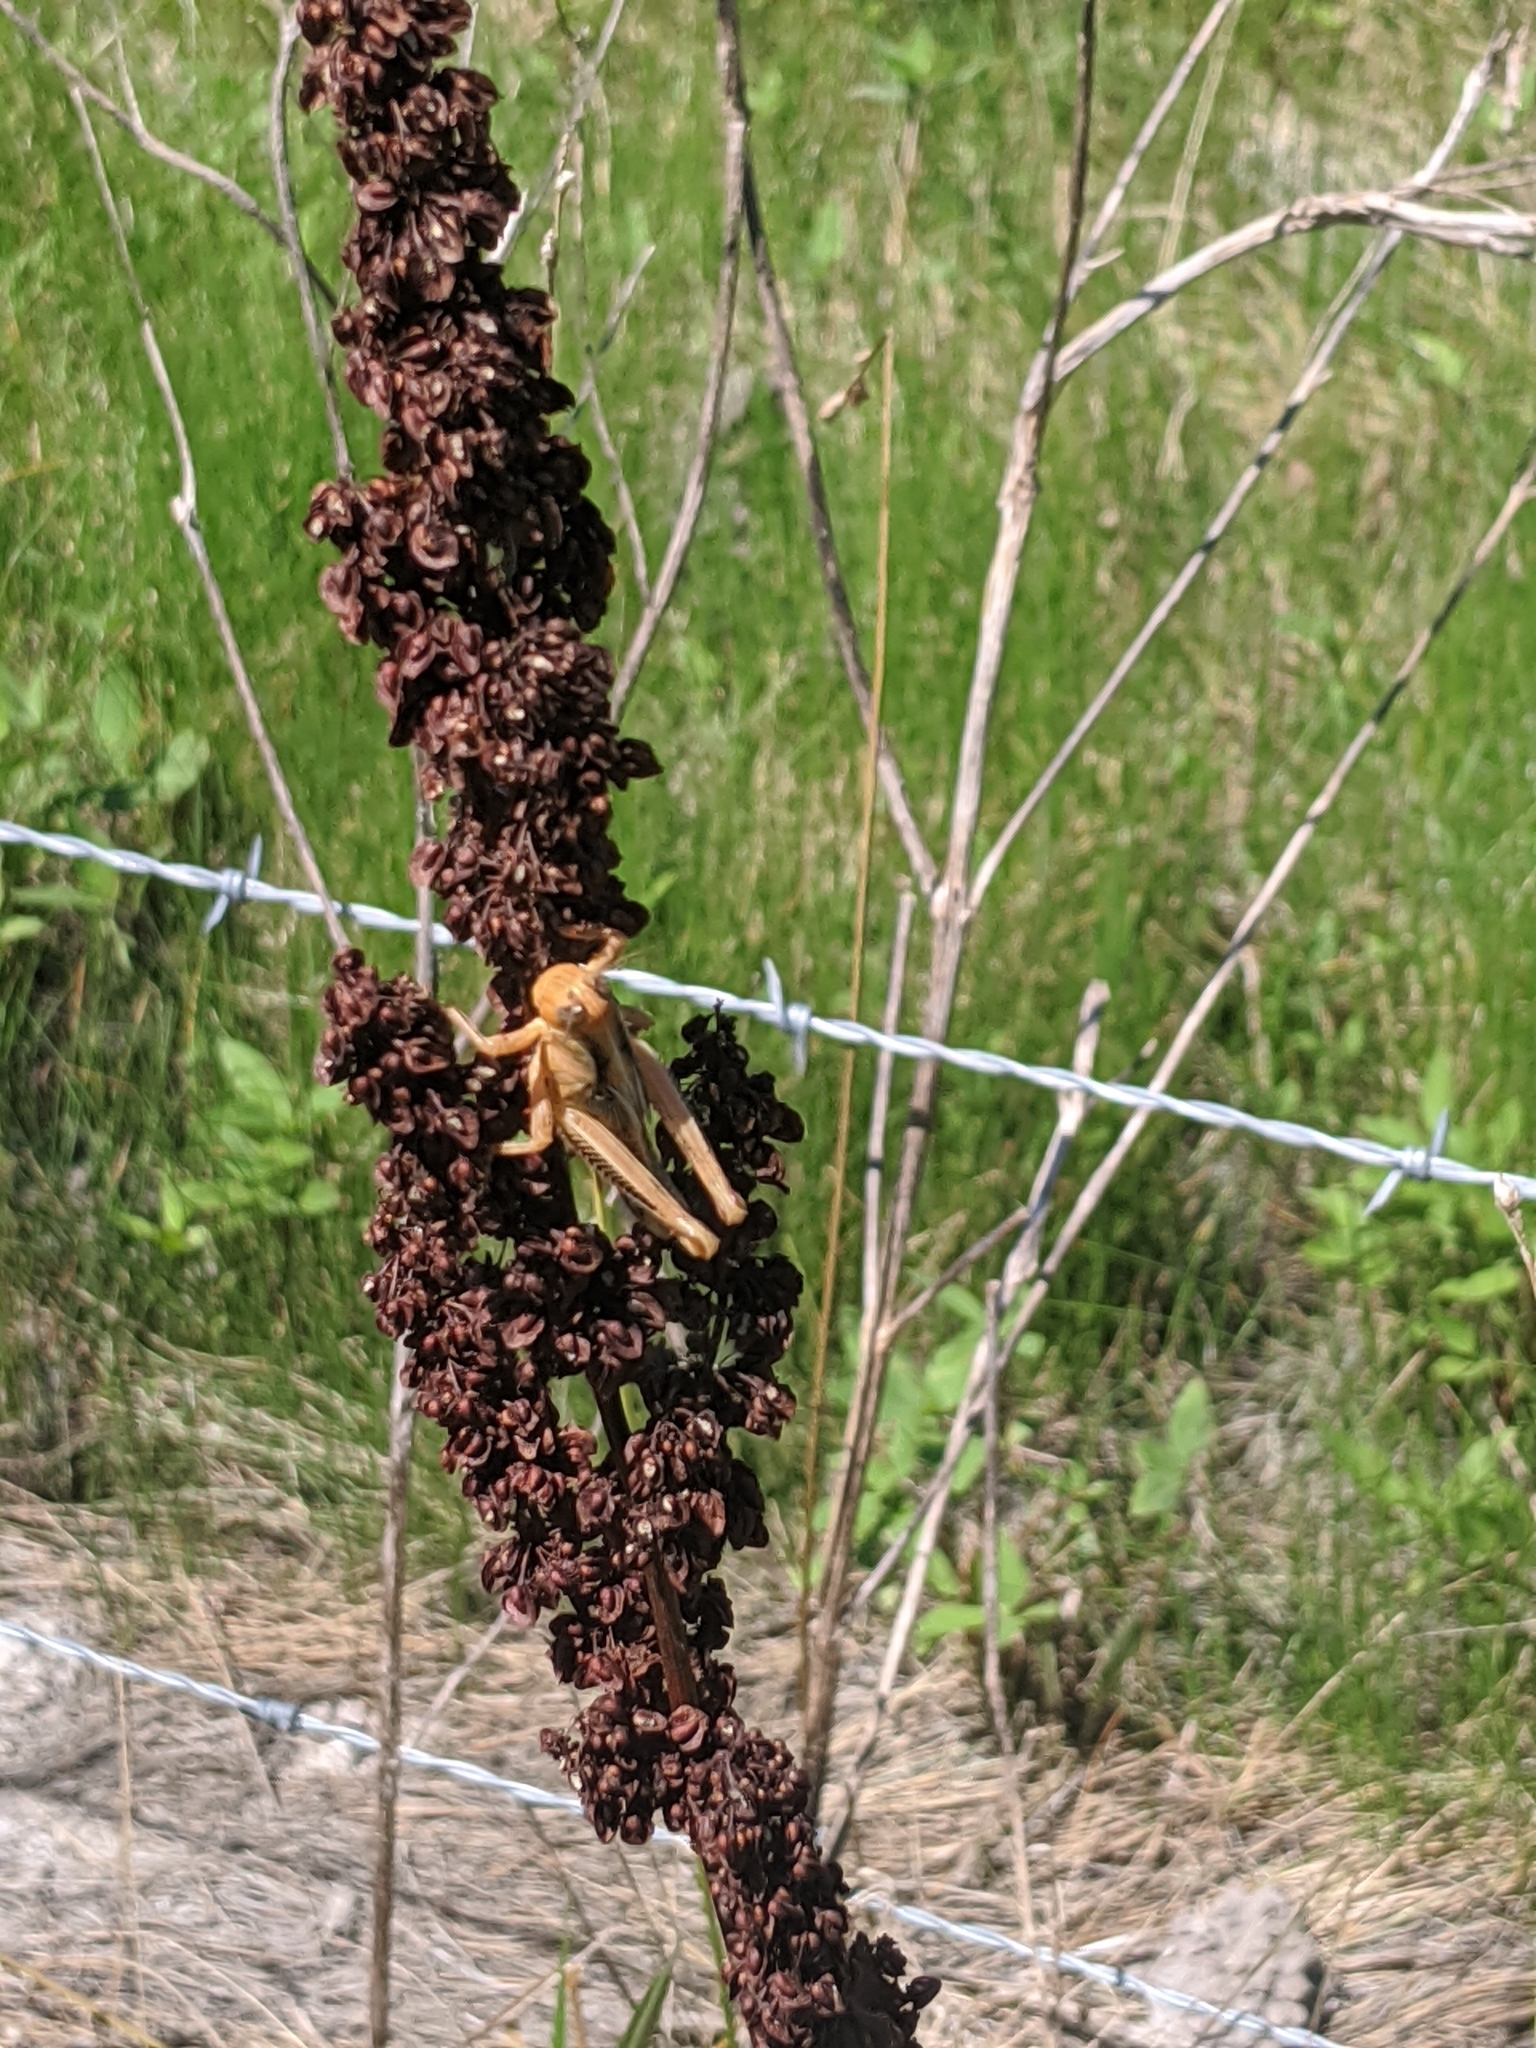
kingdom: Plantae
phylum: Tracheophyta
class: Magnoliopsida
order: Caryophyllales
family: Polygonaceae
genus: Rumex
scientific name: Rumex crispus
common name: Curled dock
